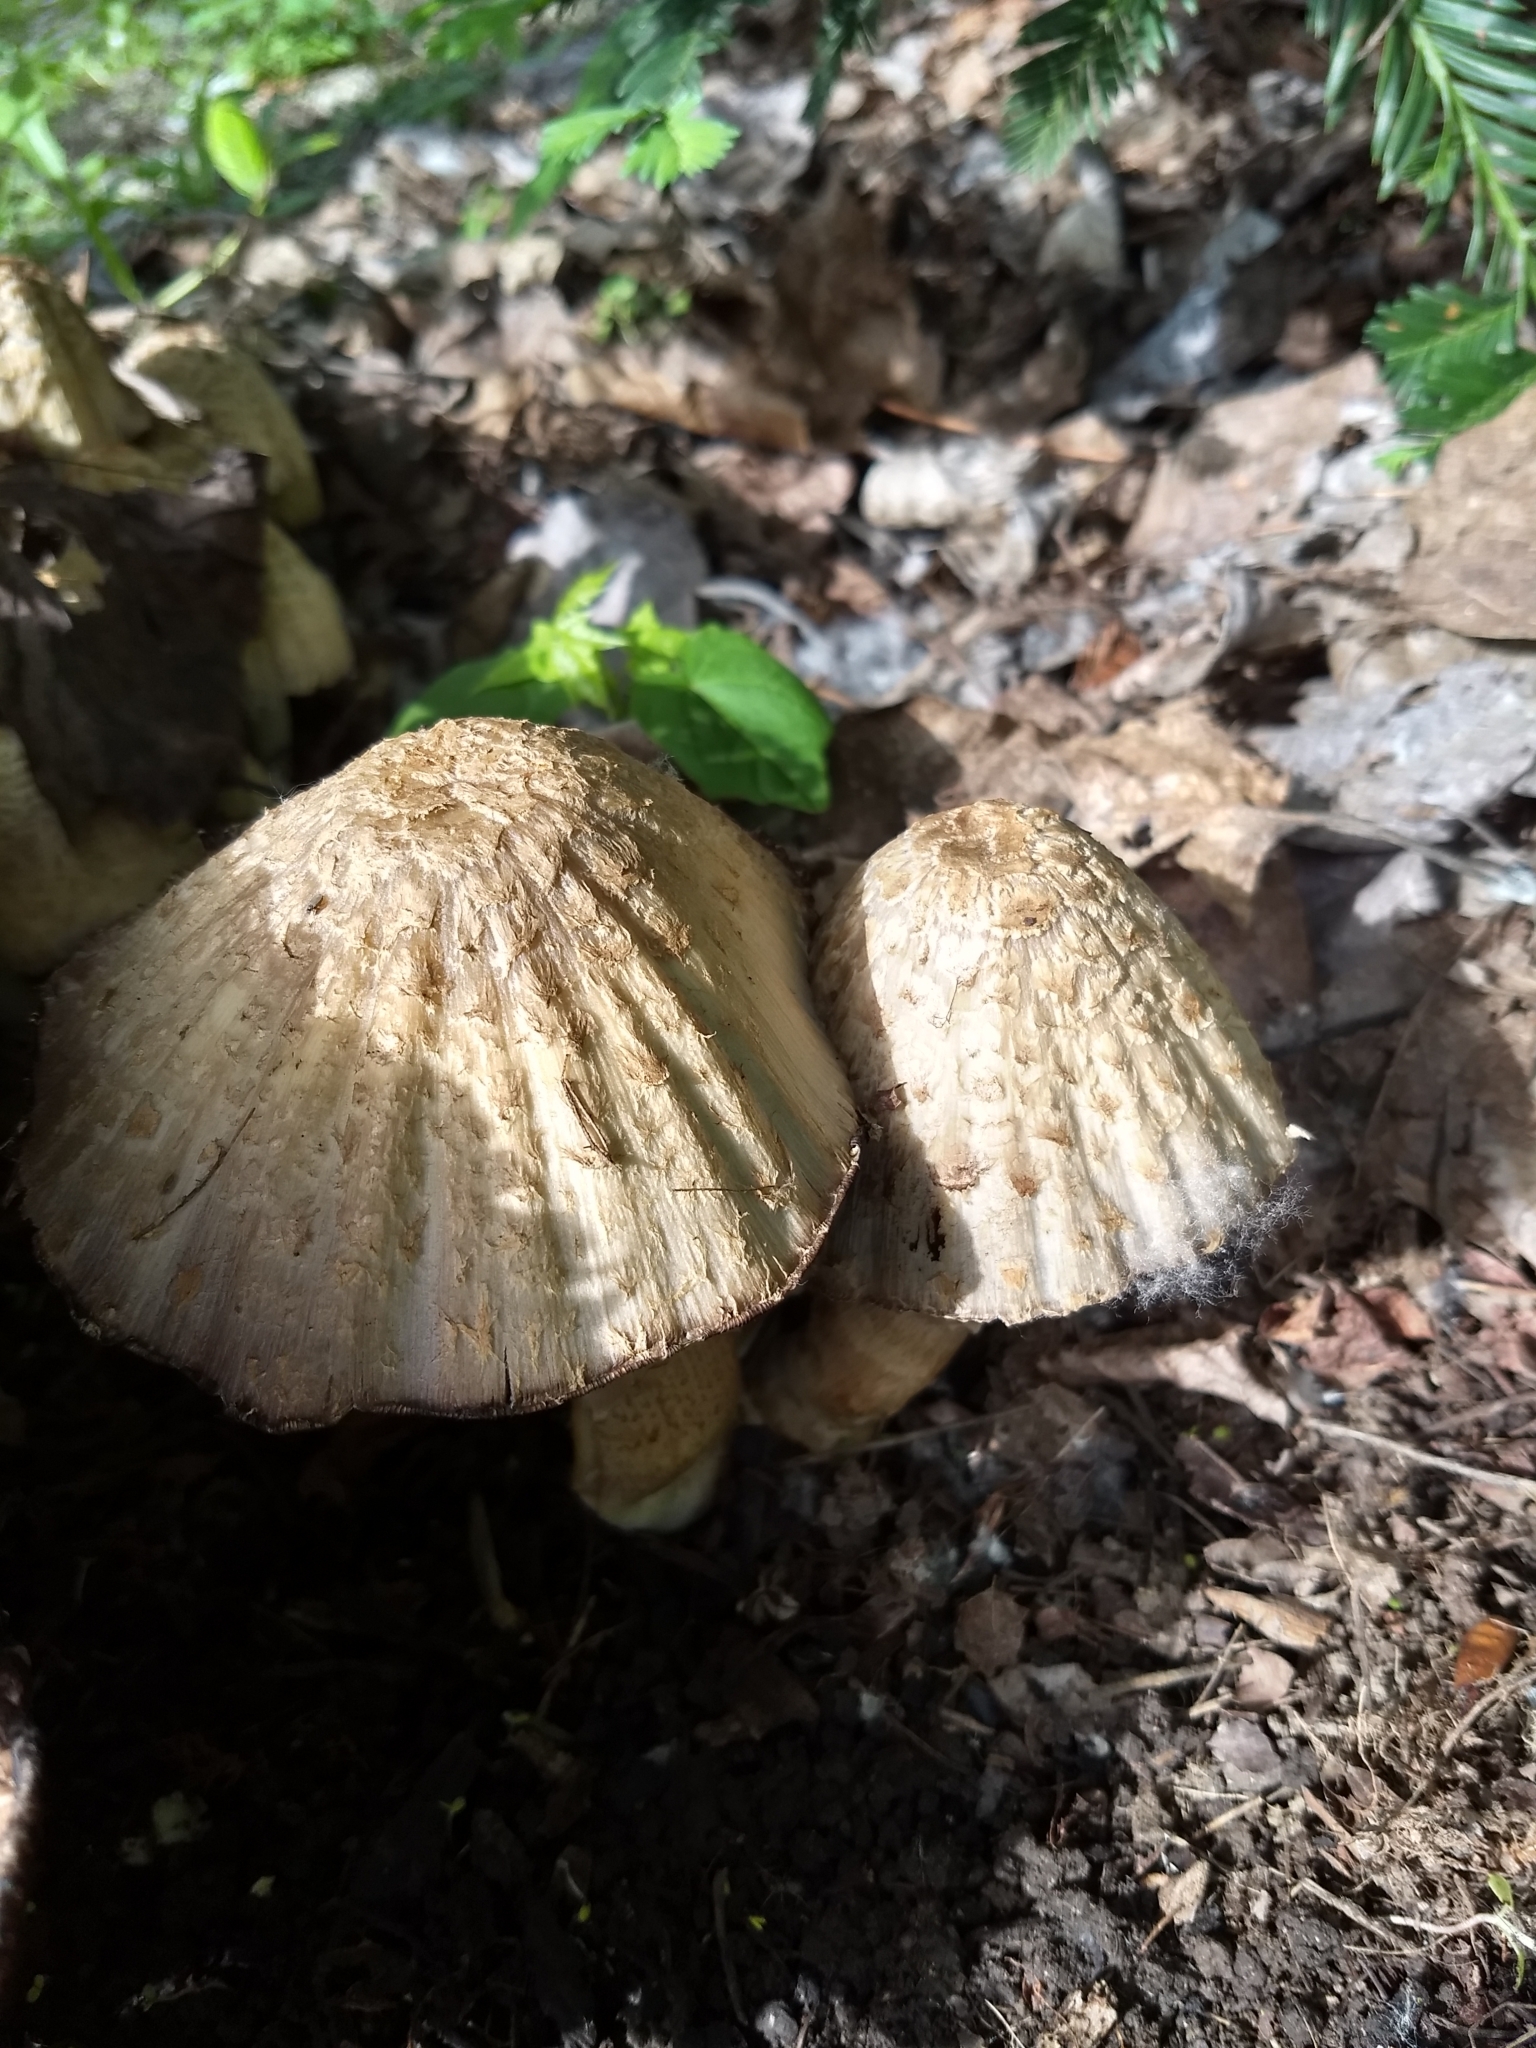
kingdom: Fungi
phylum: Basidiomycota
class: Agaricomycetes
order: Agaricales
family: Psathyrellaceae
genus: Coprinopsis
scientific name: Coprinopsis variegata
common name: Scaly ink cap
